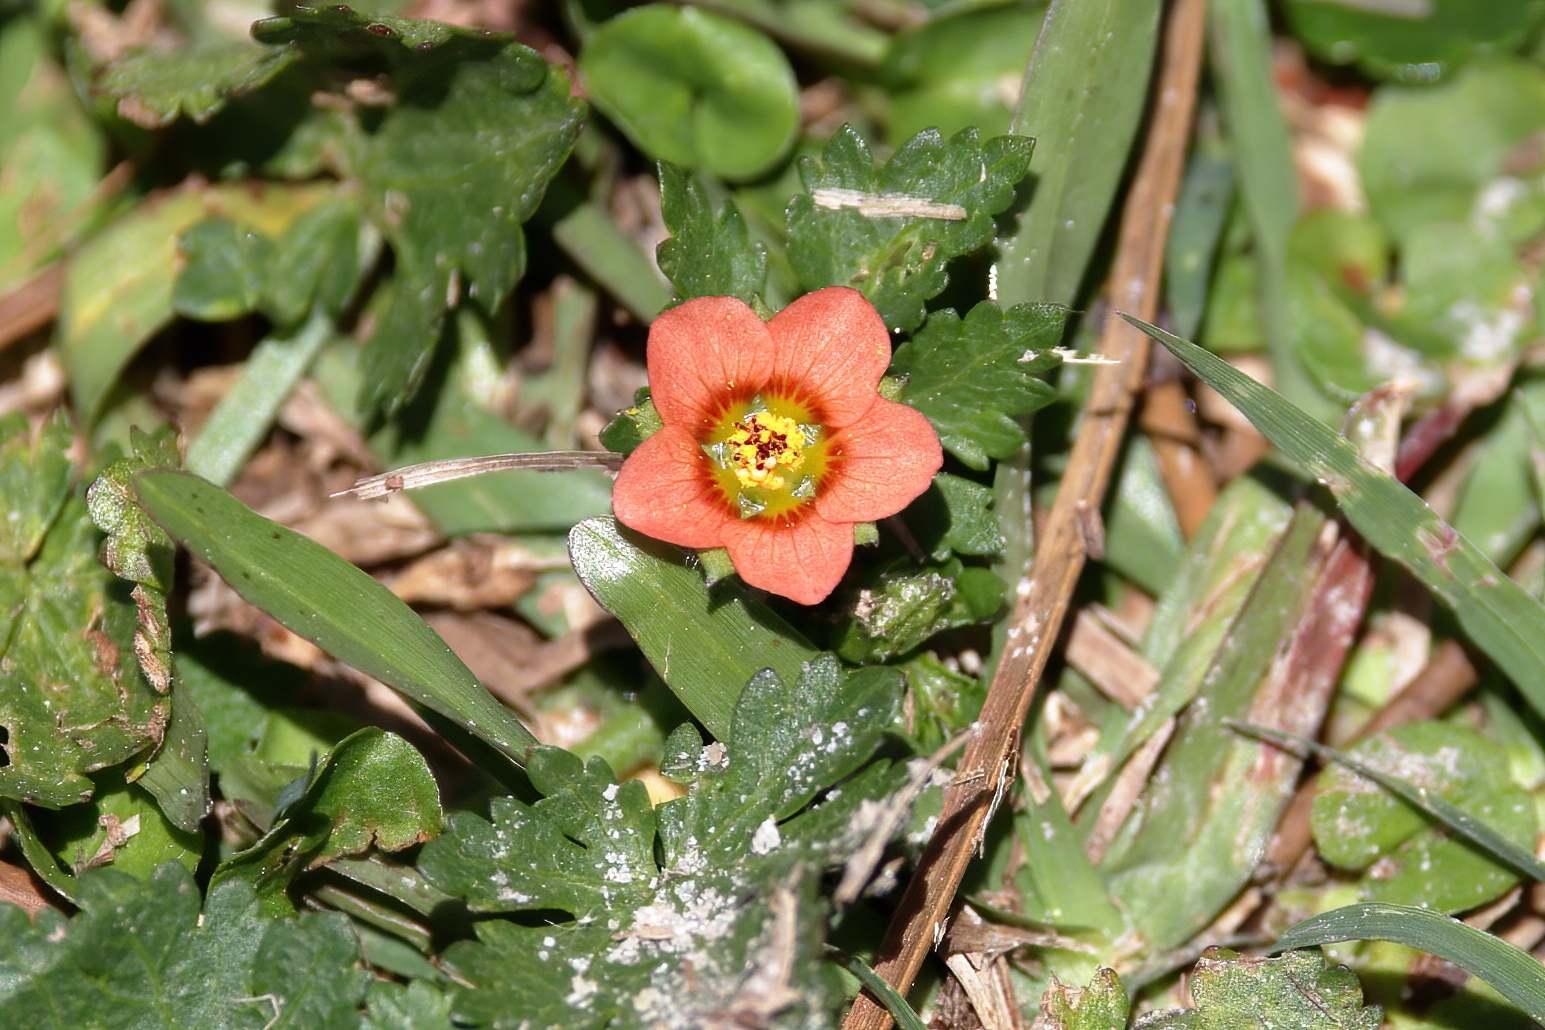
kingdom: Plantae
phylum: Tracheophyta
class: Magnoliopsida
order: Malvales
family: Malvaceae
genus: Modiola
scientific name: Modiola caroliniana
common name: Carolina bristlemallow
